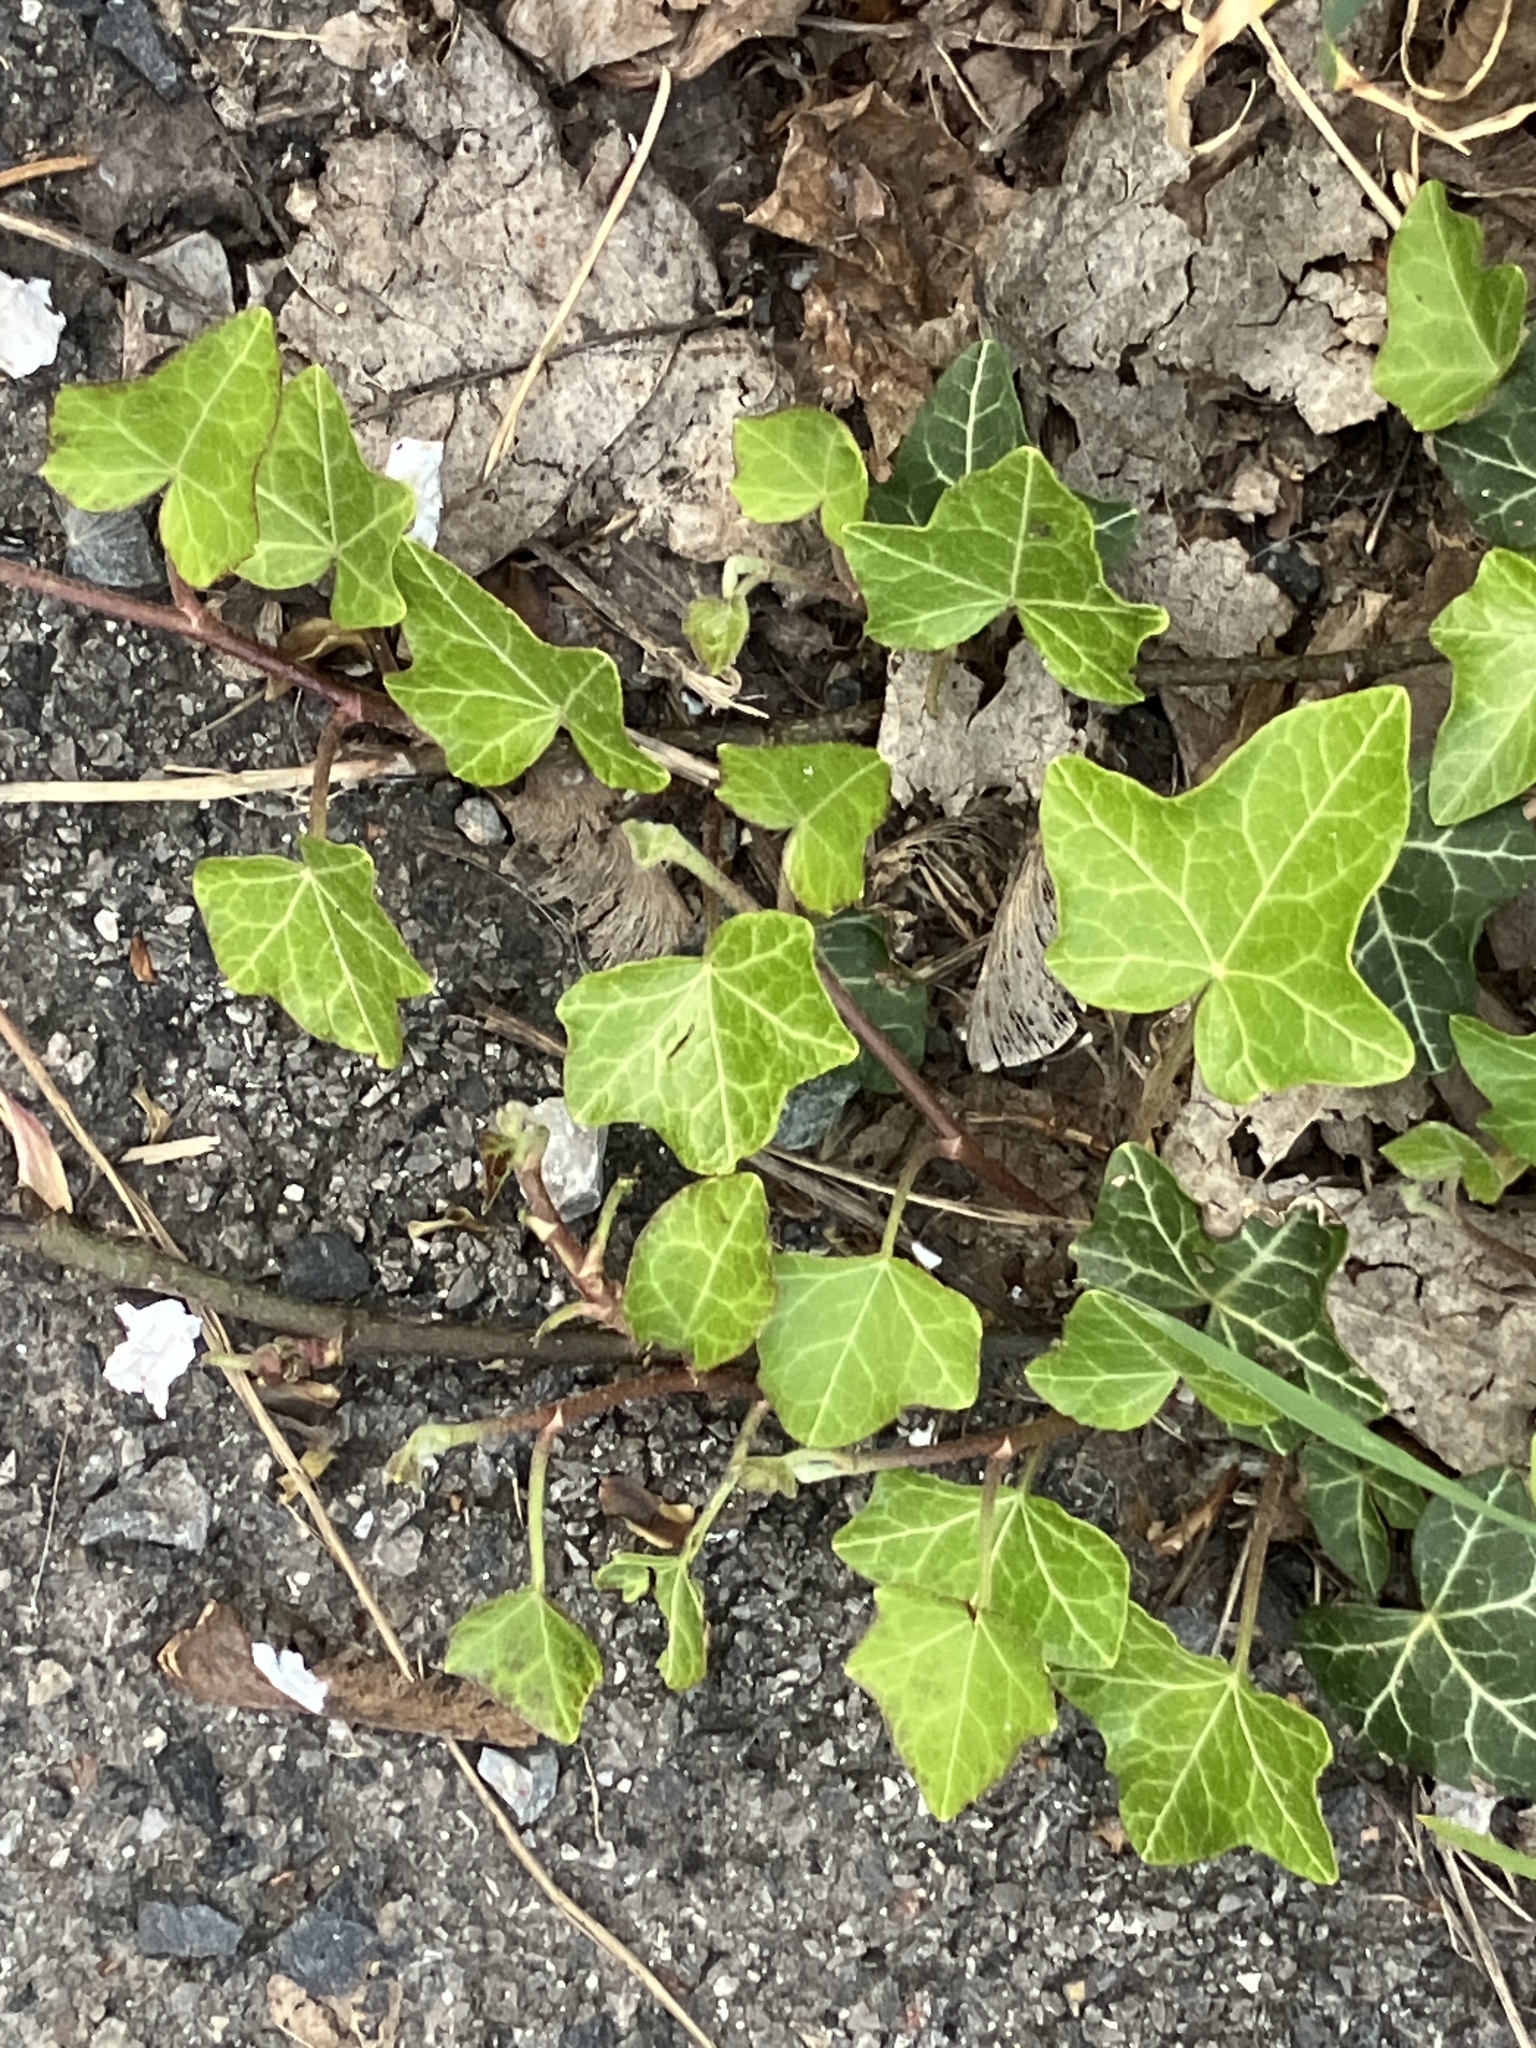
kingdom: Plantae
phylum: Tracheophyta
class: Magnoliopsida
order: Apiales
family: Araliaceae
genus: Hedera
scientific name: Hedera helix
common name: Ivy
